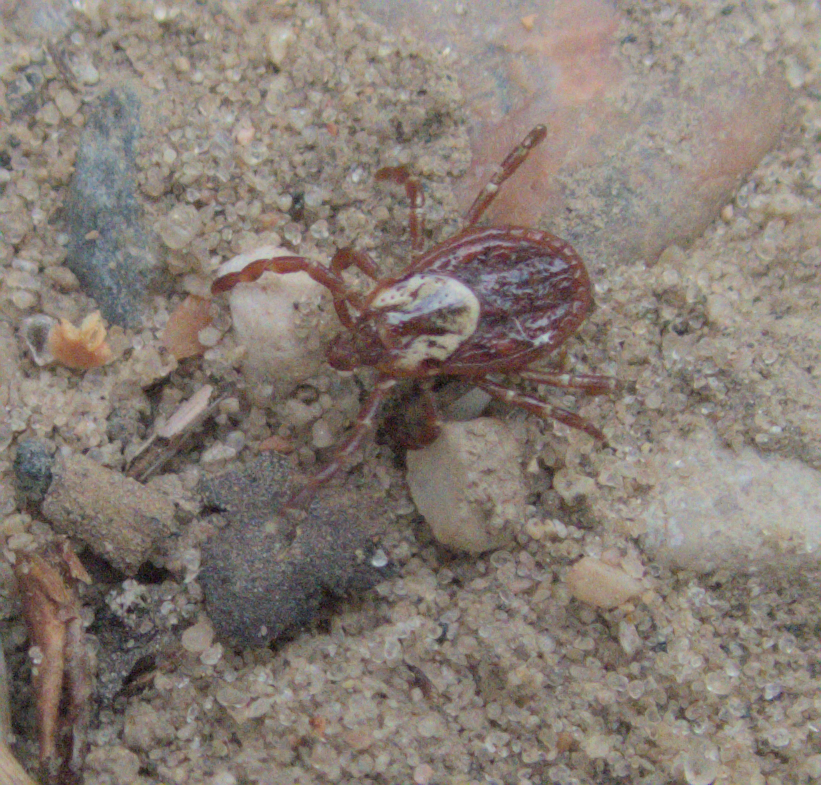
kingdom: Animalia
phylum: Arthropoda
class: Arachnida
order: Ixodida
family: Ixodidae
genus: Dermacentor
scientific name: Dermacentor variabilis
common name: American dog tick
